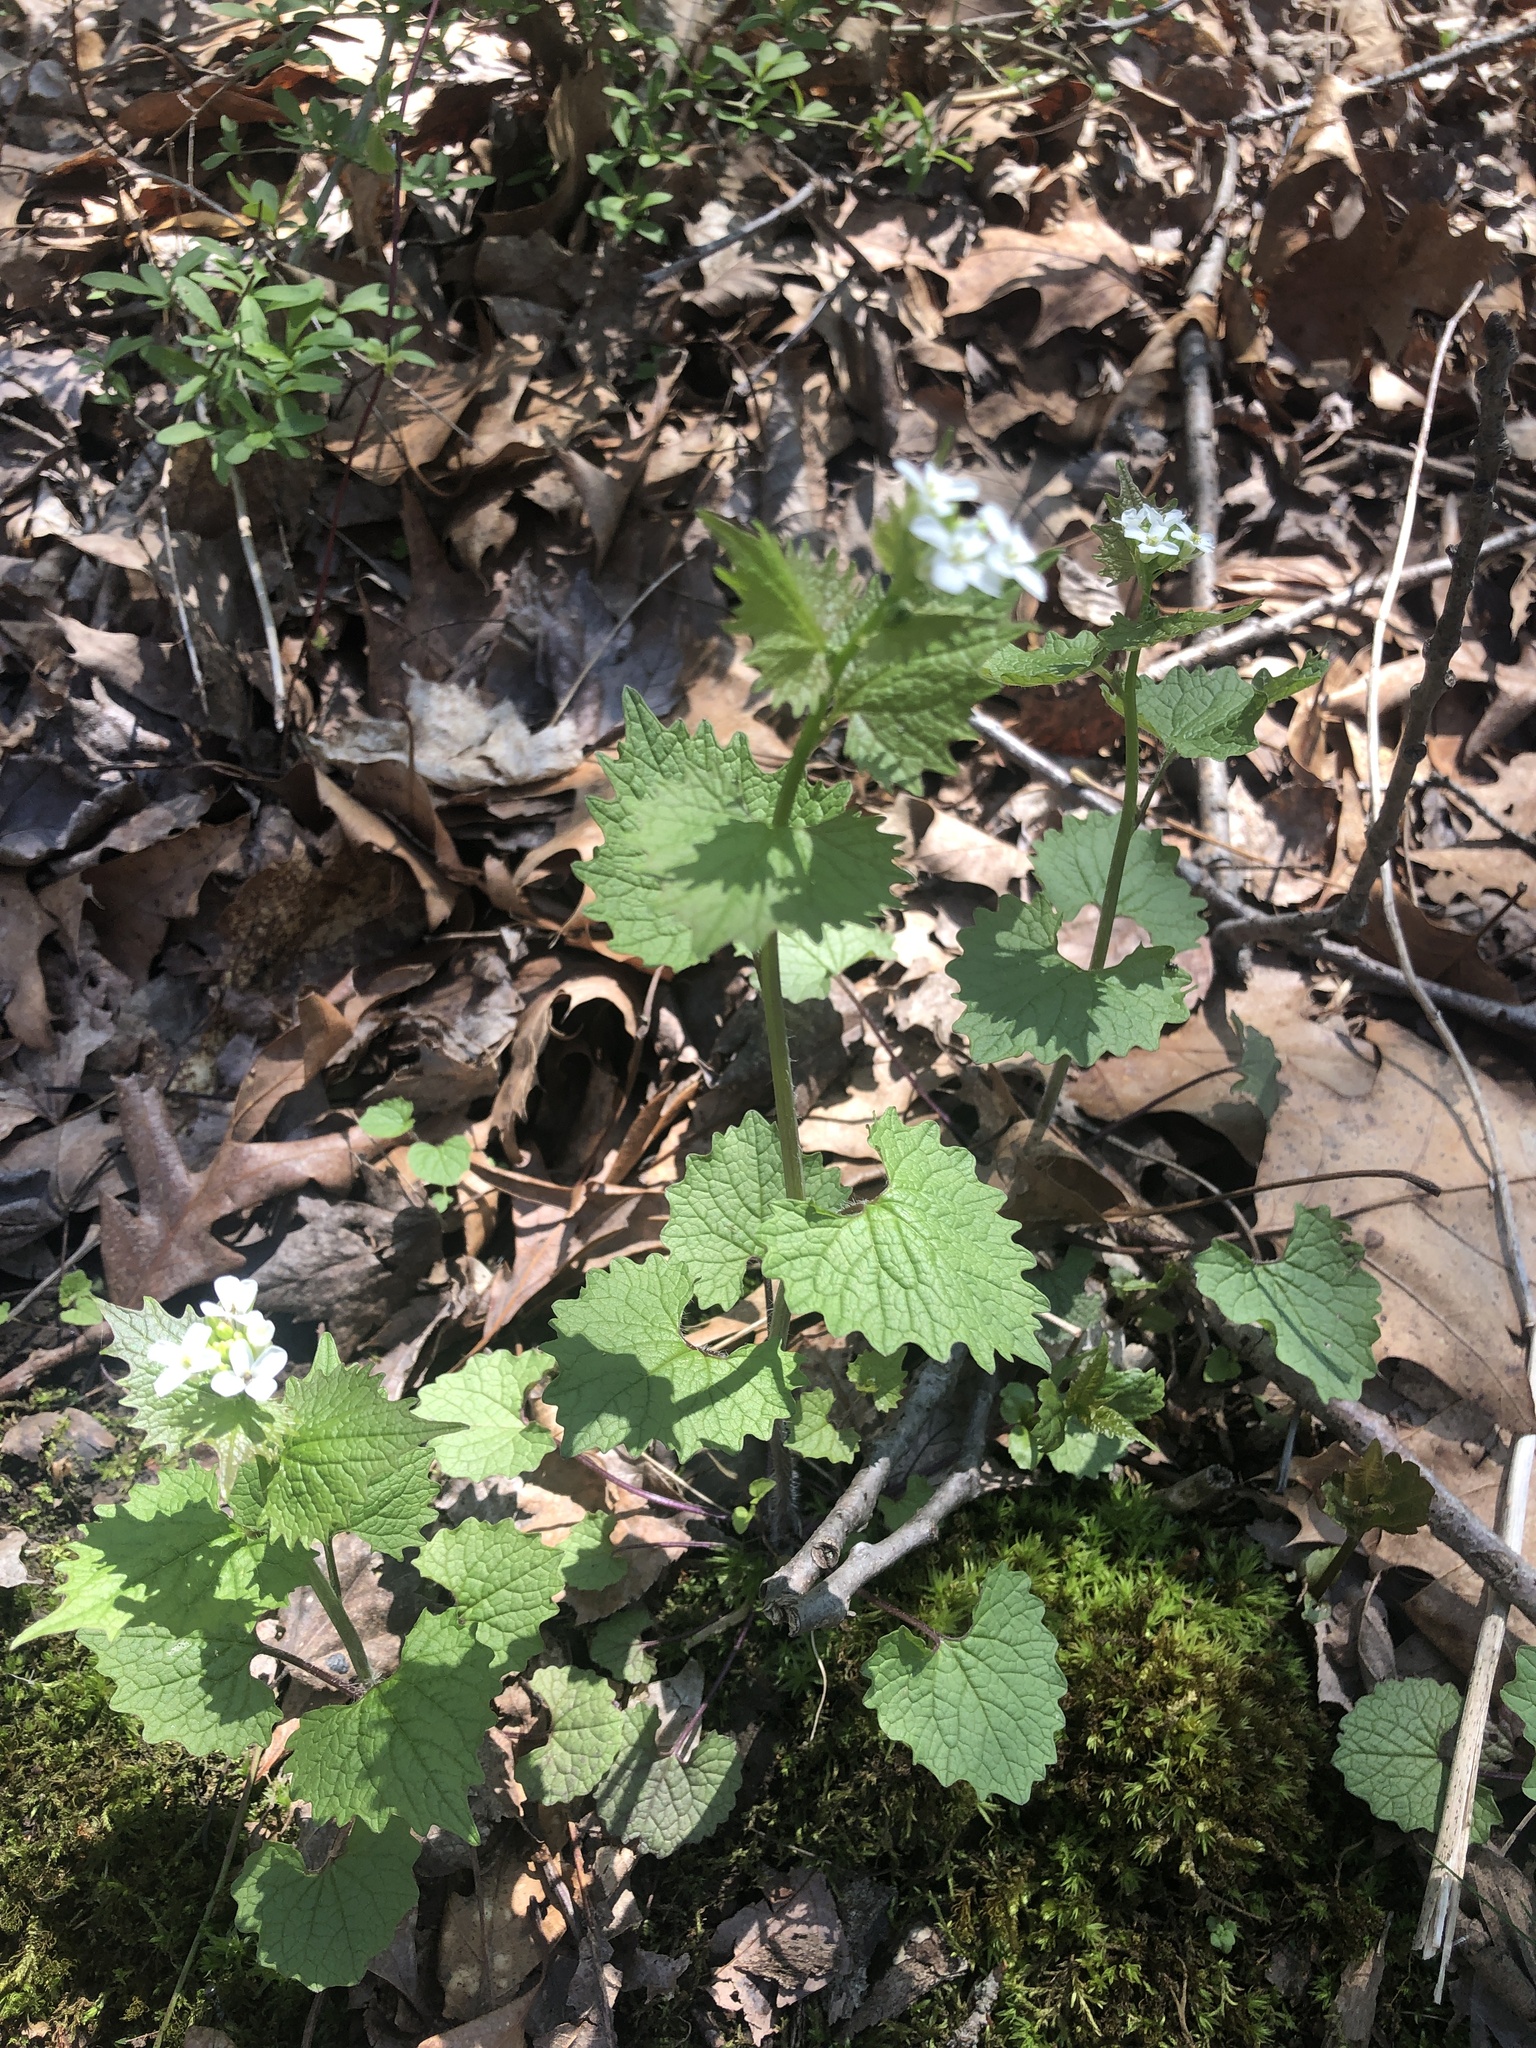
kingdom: Plantae
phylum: Tracheophyta
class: Magnoliopsida
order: Brassicales
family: Brassicaceae
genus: Alliaria
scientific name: Alliaria petiolata
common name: Garlic mustard
